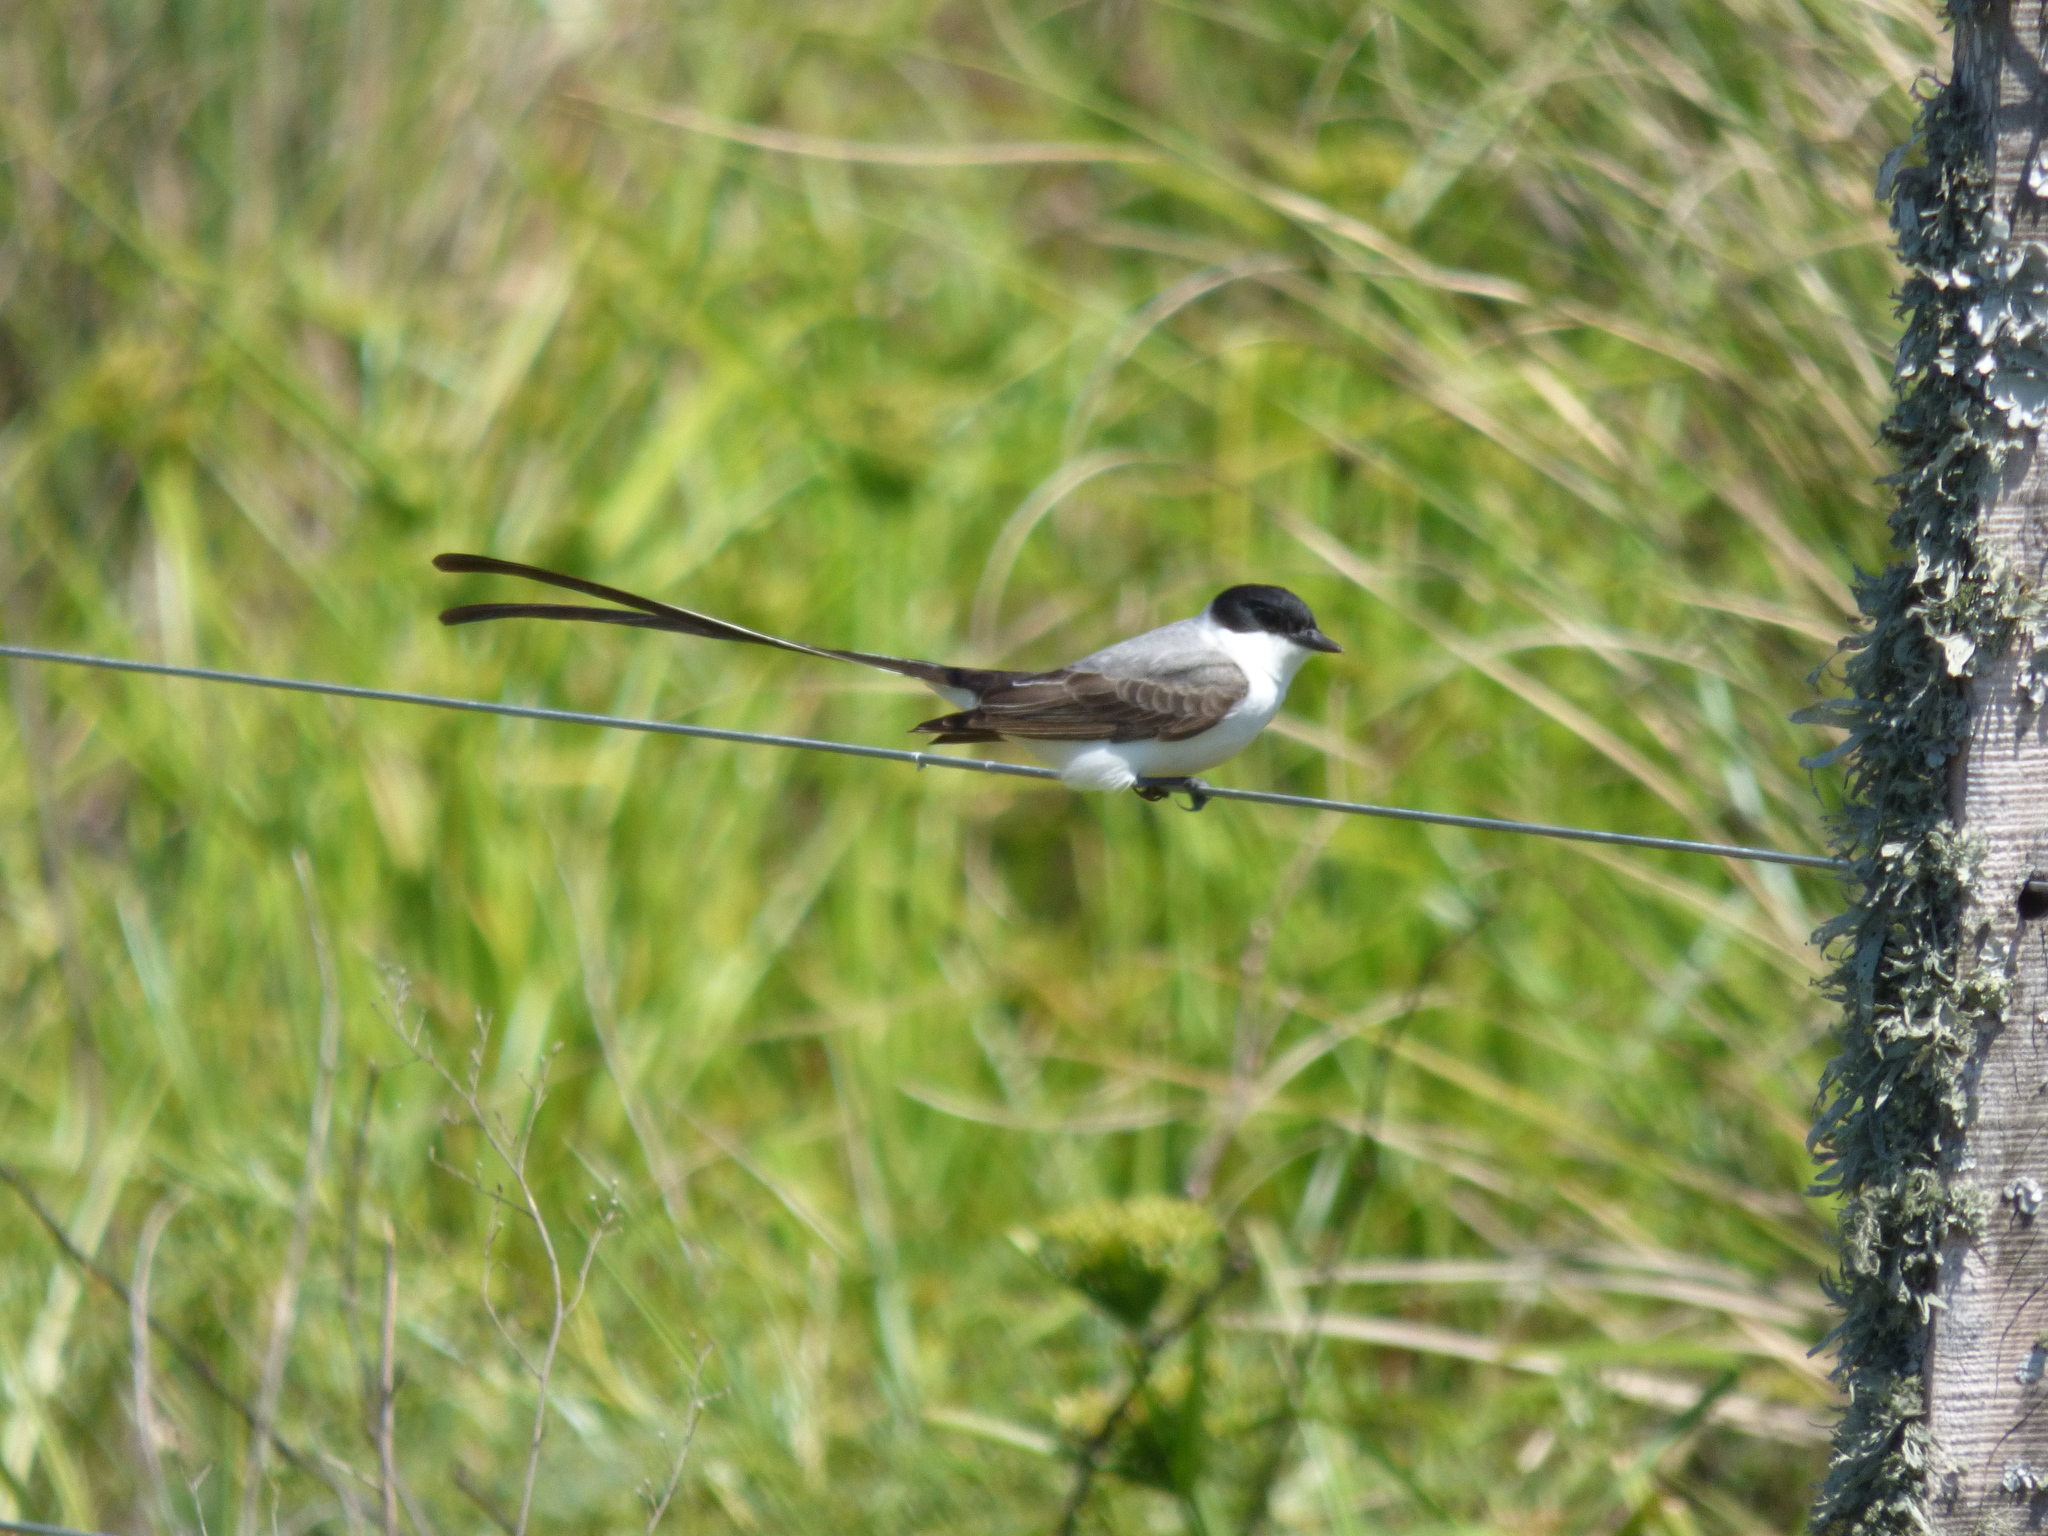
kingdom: Animalia
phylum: Chordata
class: Aves
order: Passeriformes
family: Tyrannidae
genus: Tyrannus
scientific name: Tyrannus savana
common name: Fork-tailed flycatcher
